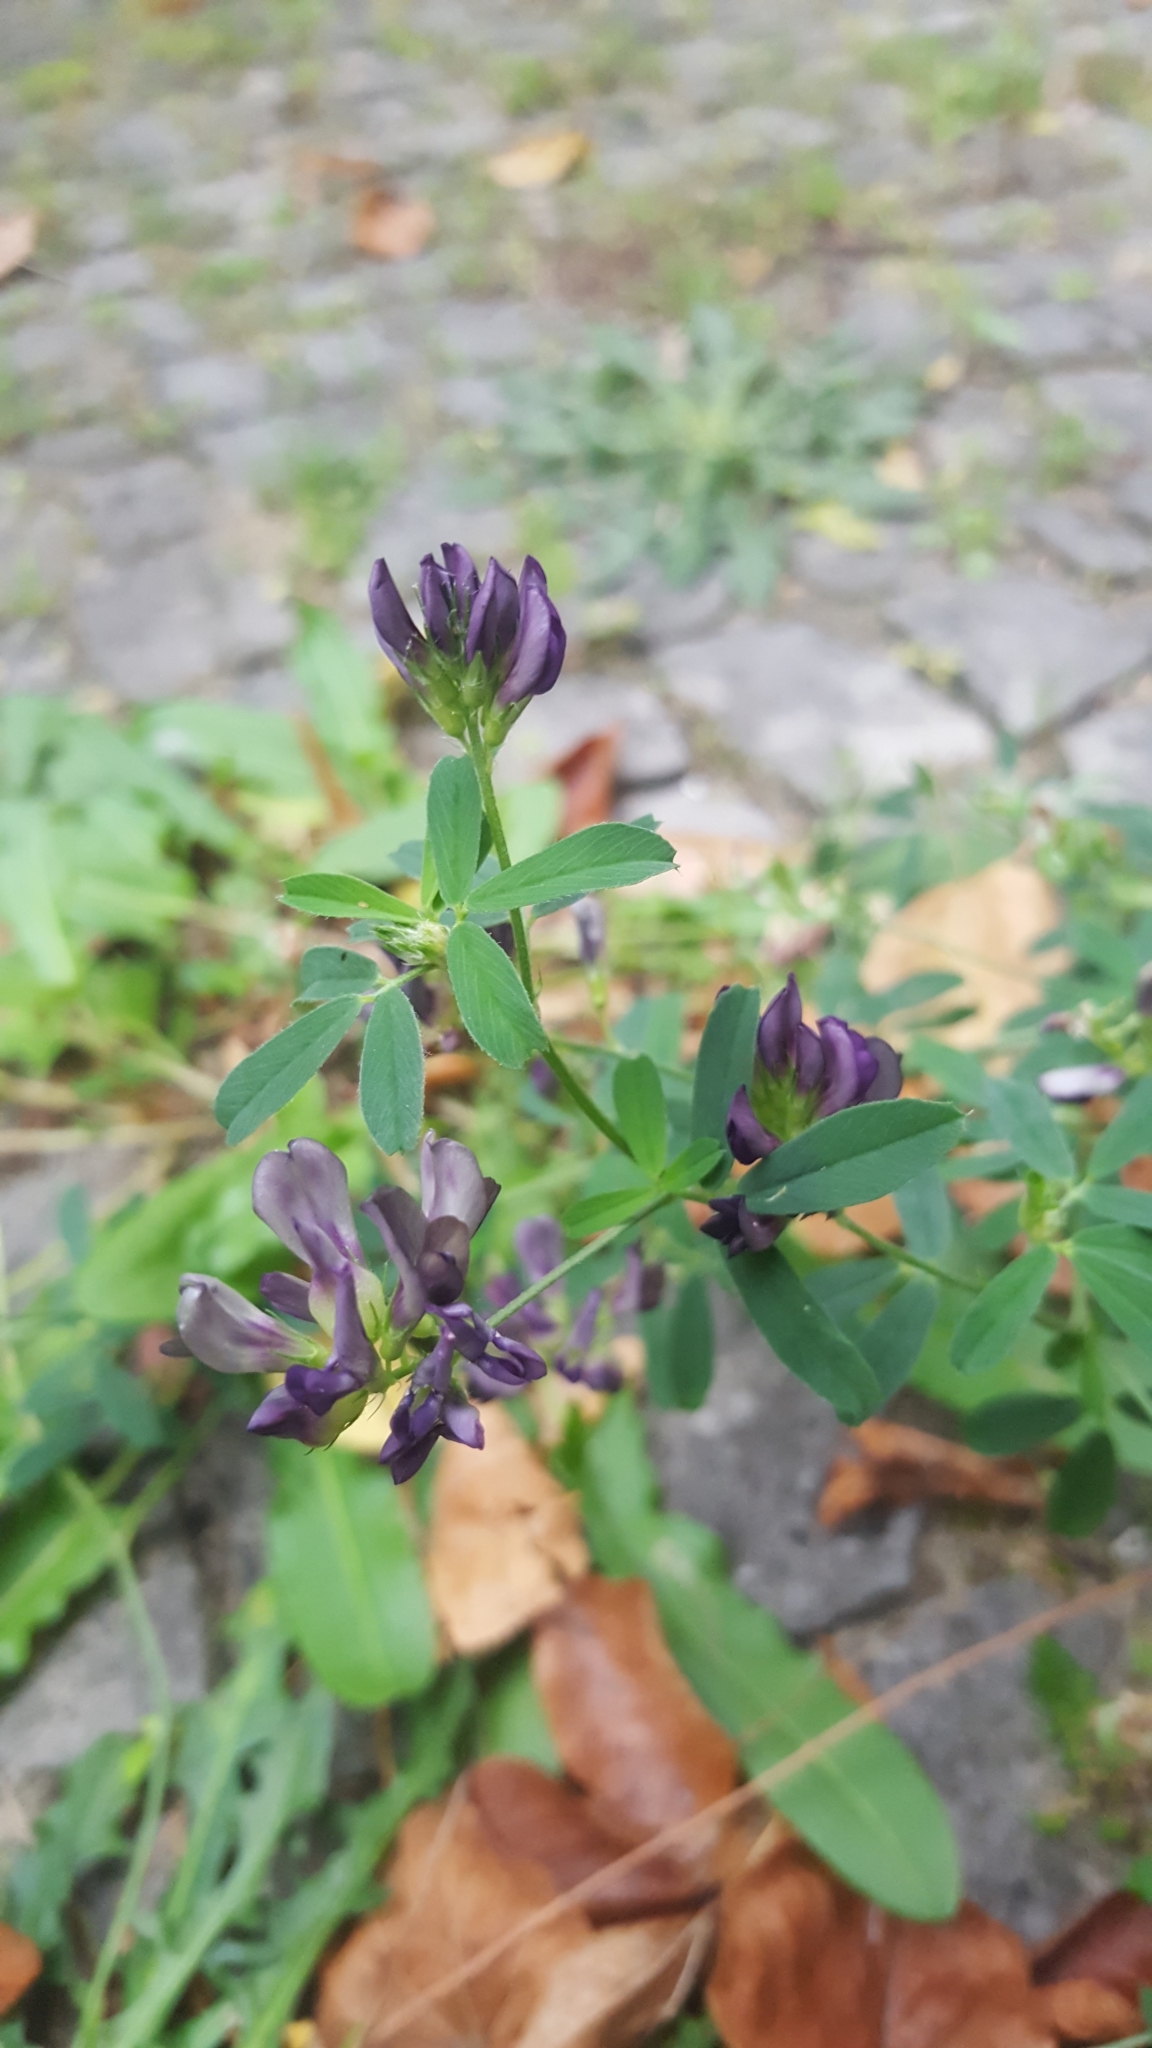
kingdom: Plantae
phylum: Tracheophyta
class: Magnoliopsida
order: Fabales
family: Fabaceae
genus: Medicago
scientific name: Medicago varia
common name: Sand lucerne
